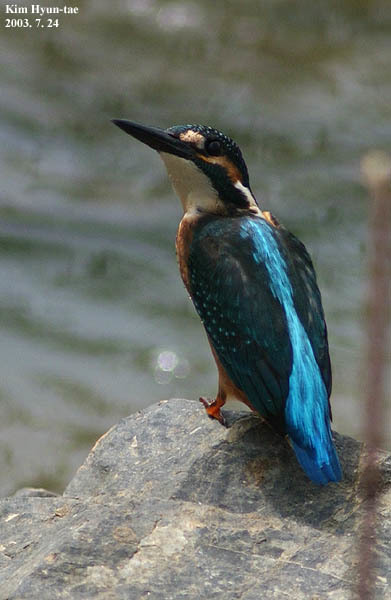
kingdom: Animalia
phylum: Chordata
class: Aves
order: Coraciiformes
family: Alcedinidae
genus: Alcedo
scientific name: Alcedo atthis
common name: Common kingfisher
